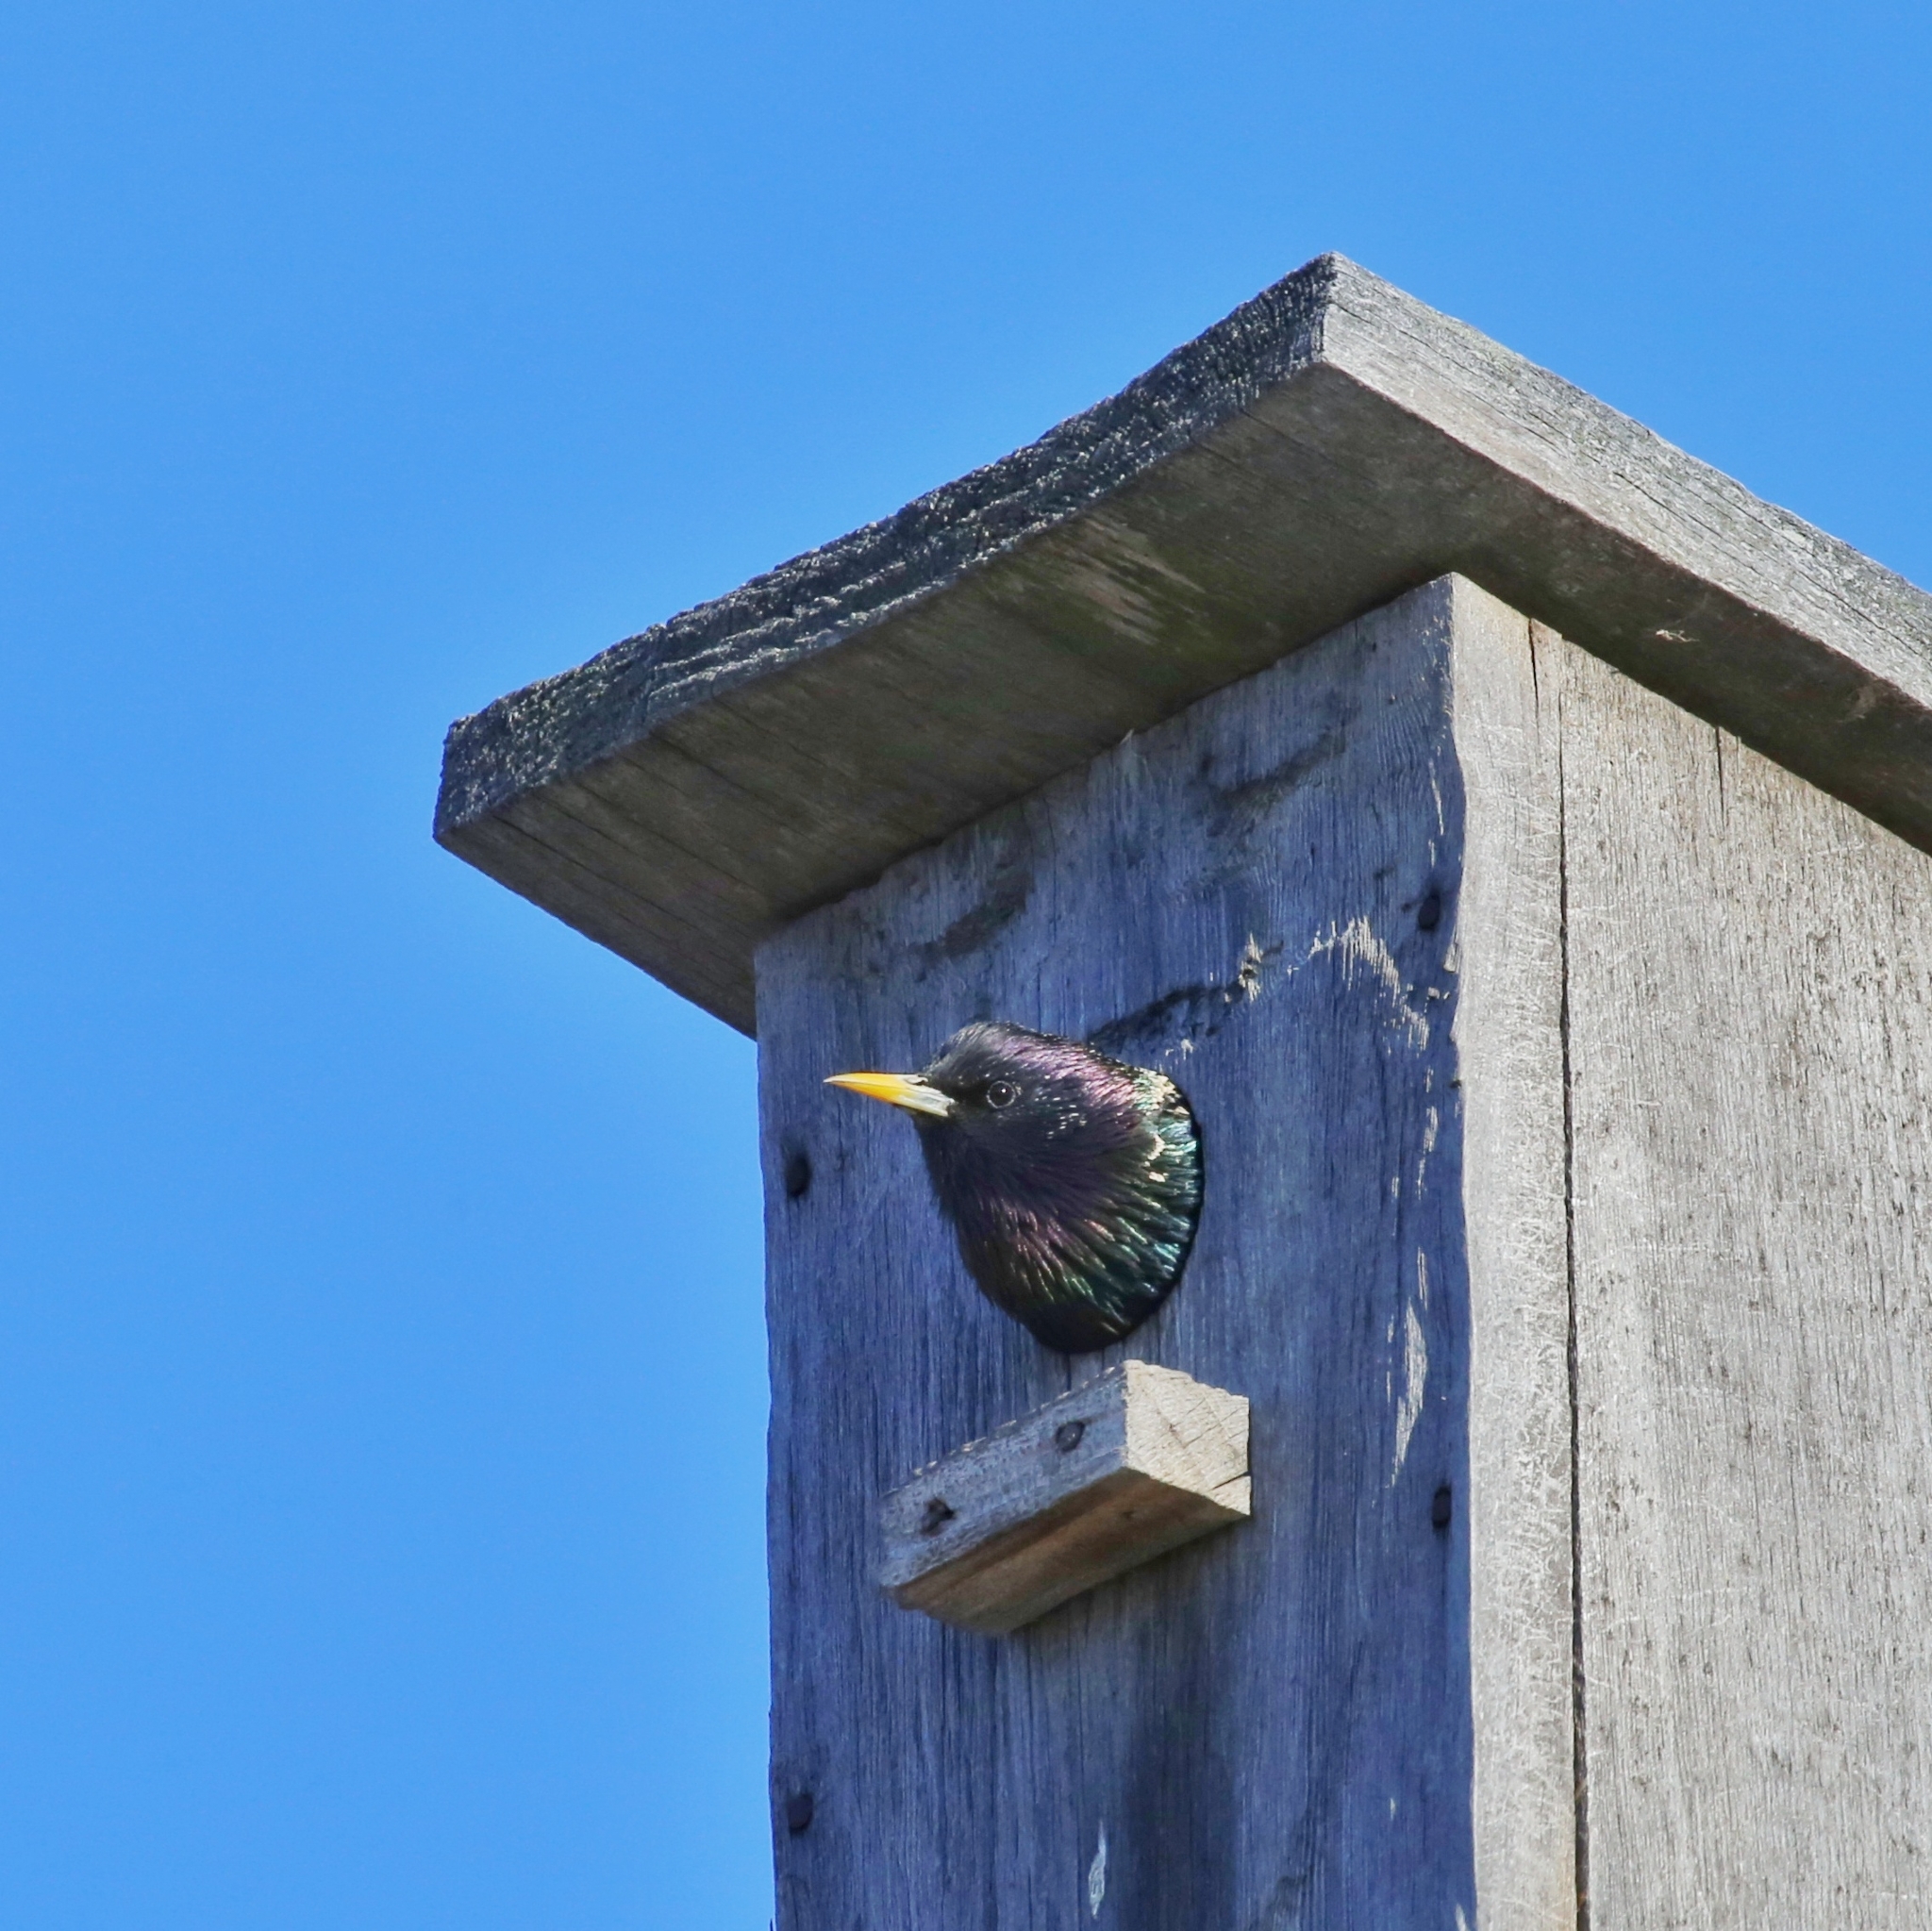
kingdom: Animalia
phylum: Chordata
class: Aves
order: Passeriformes
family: Sturnidae
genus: Sturnus
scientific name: Sturnus vulgaris
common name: Common starling
